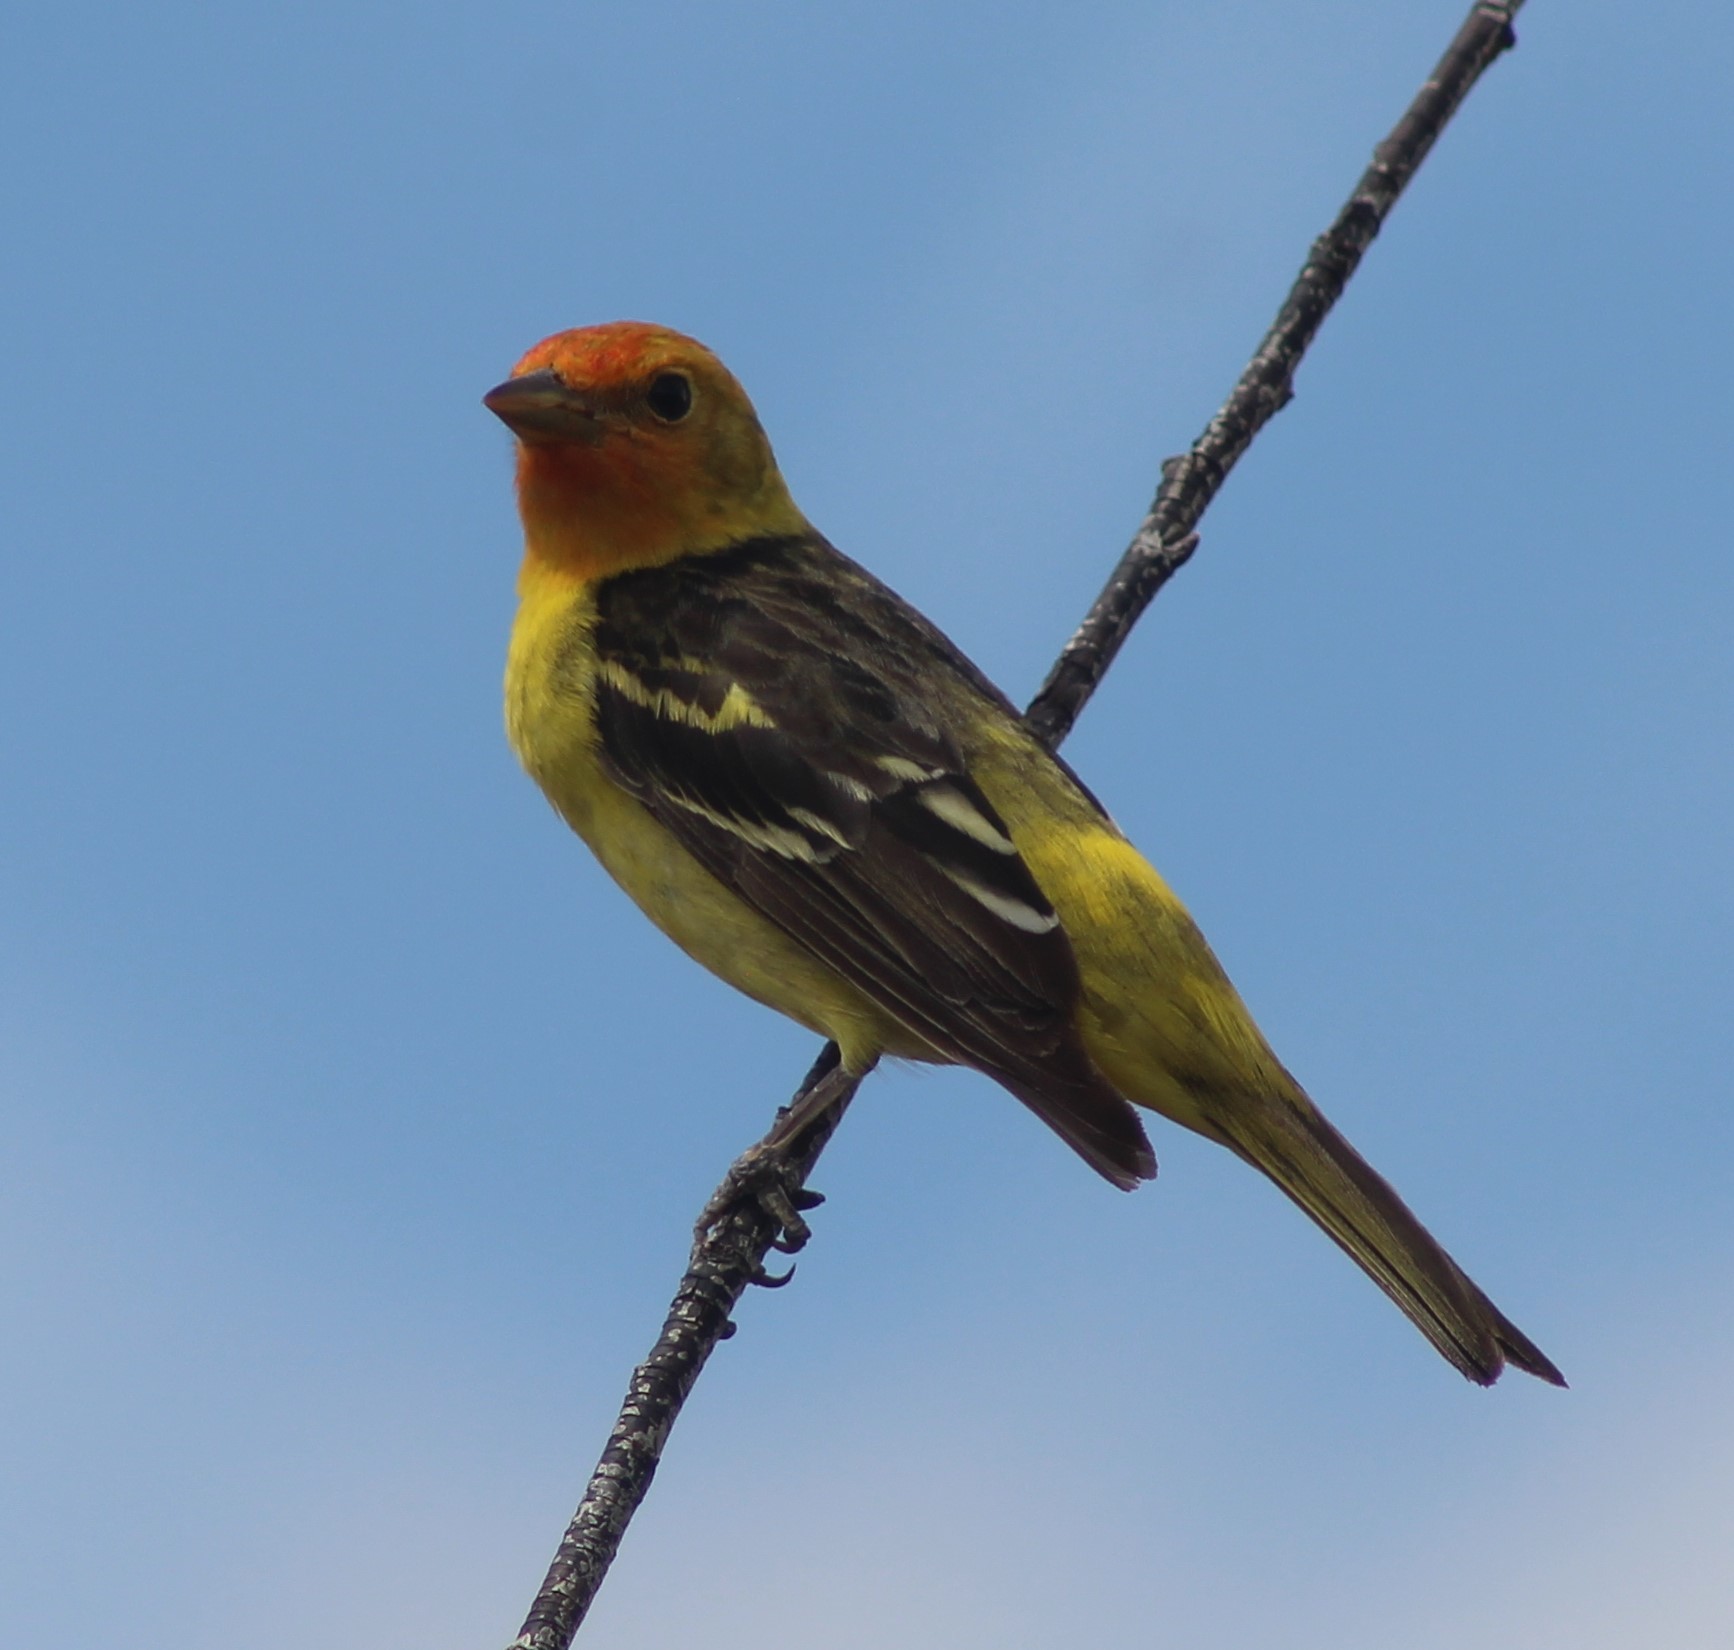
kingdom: Animalia
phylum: Chordata
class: Aves
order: Passeriformes
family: Cardinalidae
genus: Piranga
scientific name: Piranga ludoviciana
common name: Western tanager
